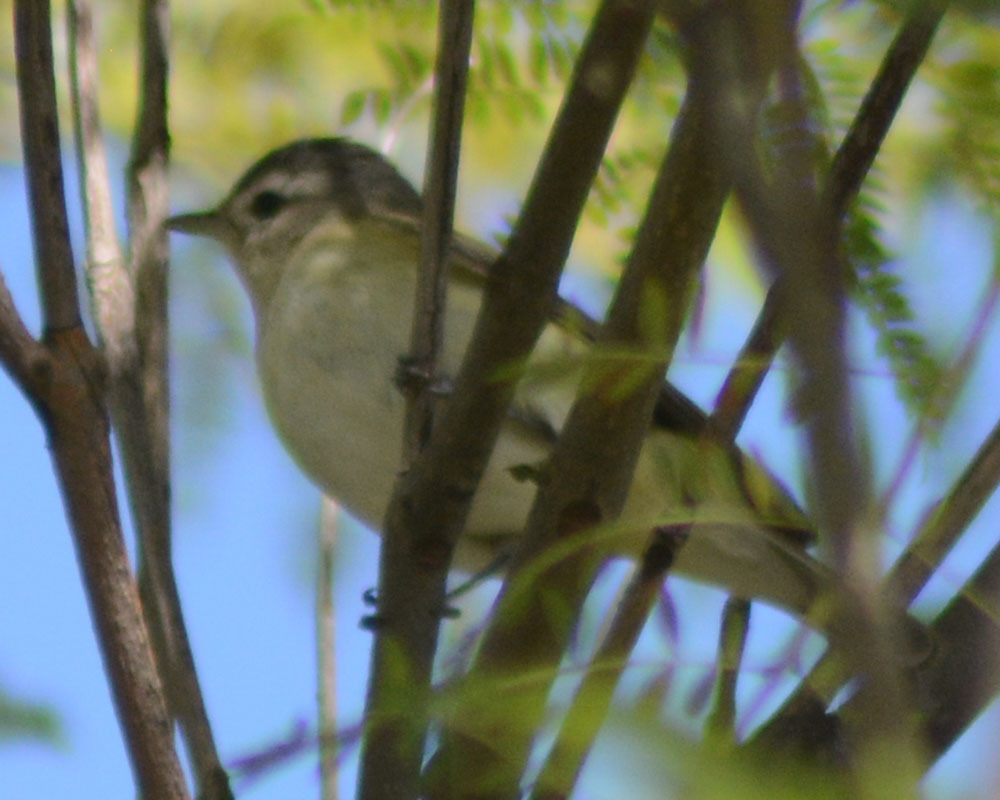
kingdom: Animalia
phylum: Chordata
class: Aves
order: Passeriformes
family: Vireonidae
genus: Vireo
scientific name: Vireo gilvus
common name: Warbling vireo
